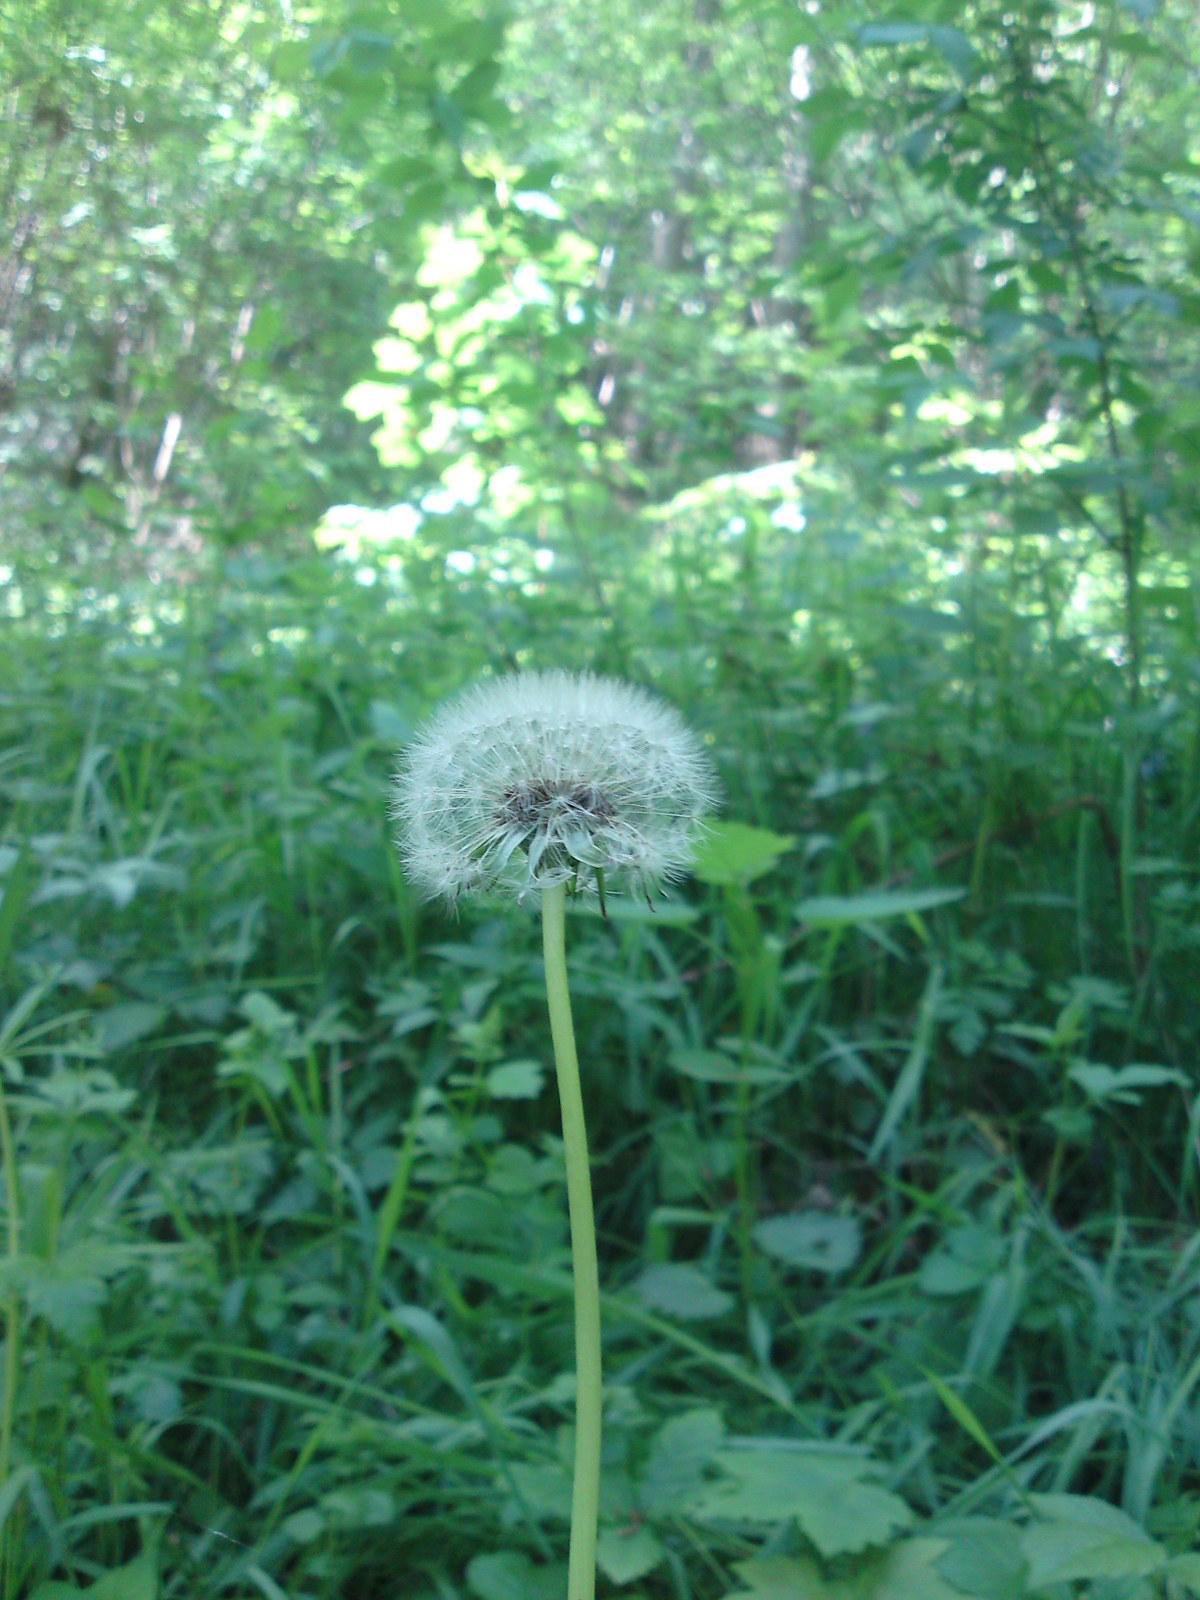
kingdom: Plantae
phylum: Tracheophyta
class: Magnoliopsida
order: Asterales
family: Asteraceae
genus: Taraxacum
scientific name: Taraxacum officinale
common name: Common dandelion
